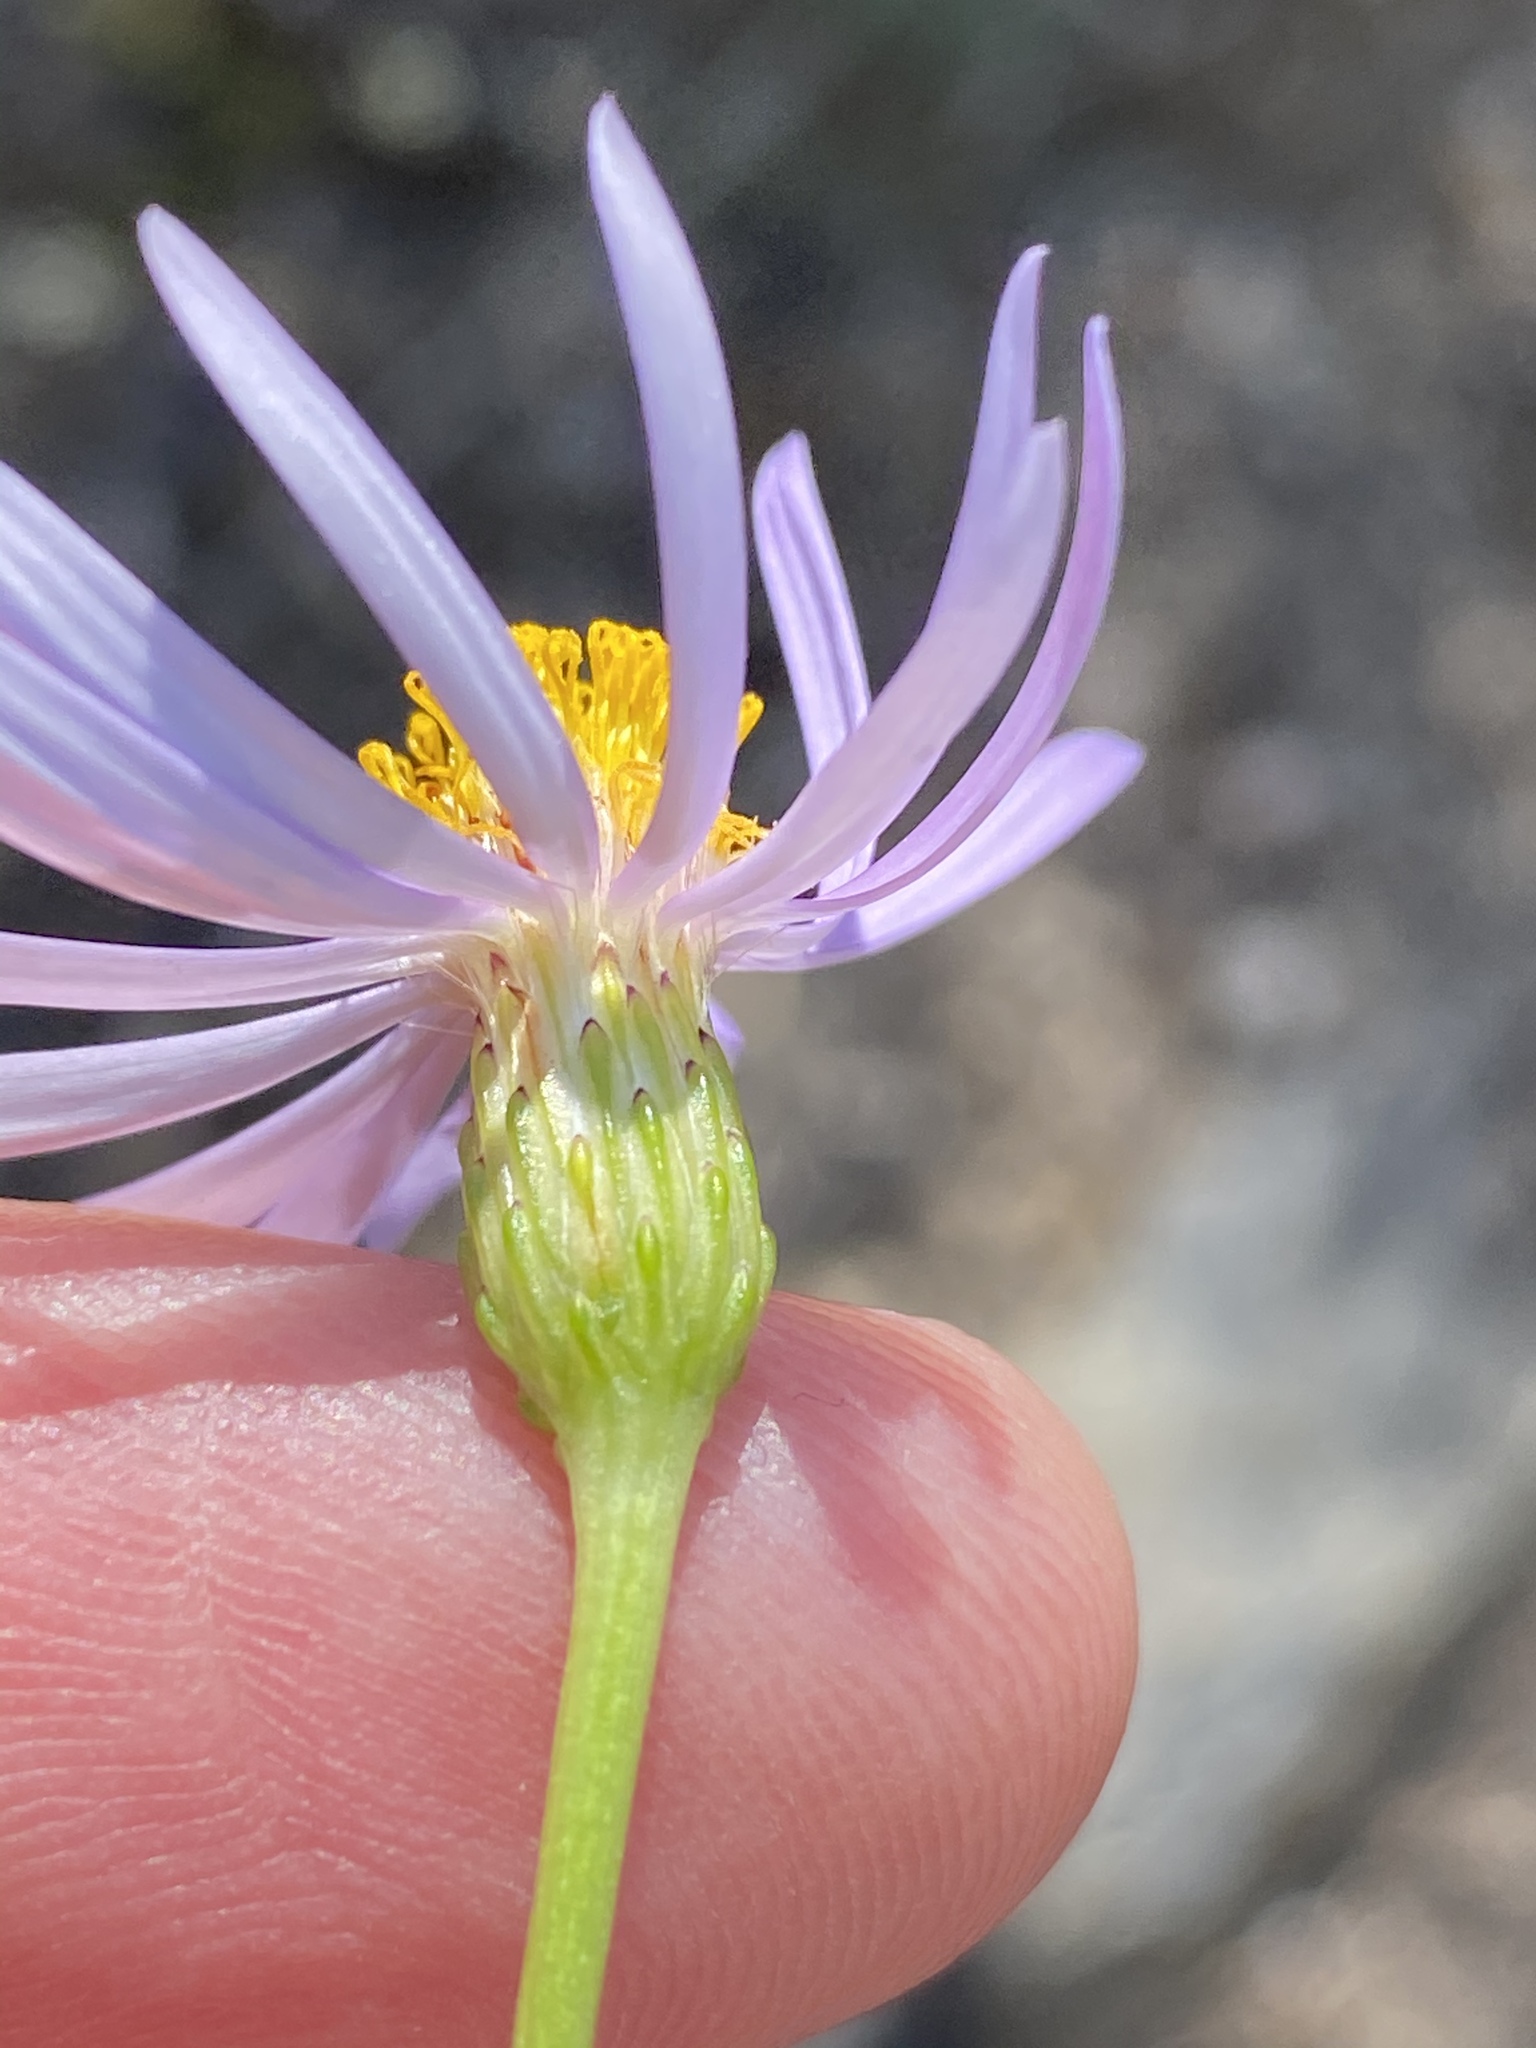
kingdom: Plantae
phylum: Tracheophyta
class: Magnoliopsida
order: Asterales
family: Asteraceae
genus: Felicia
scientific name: Felicia filifolia
